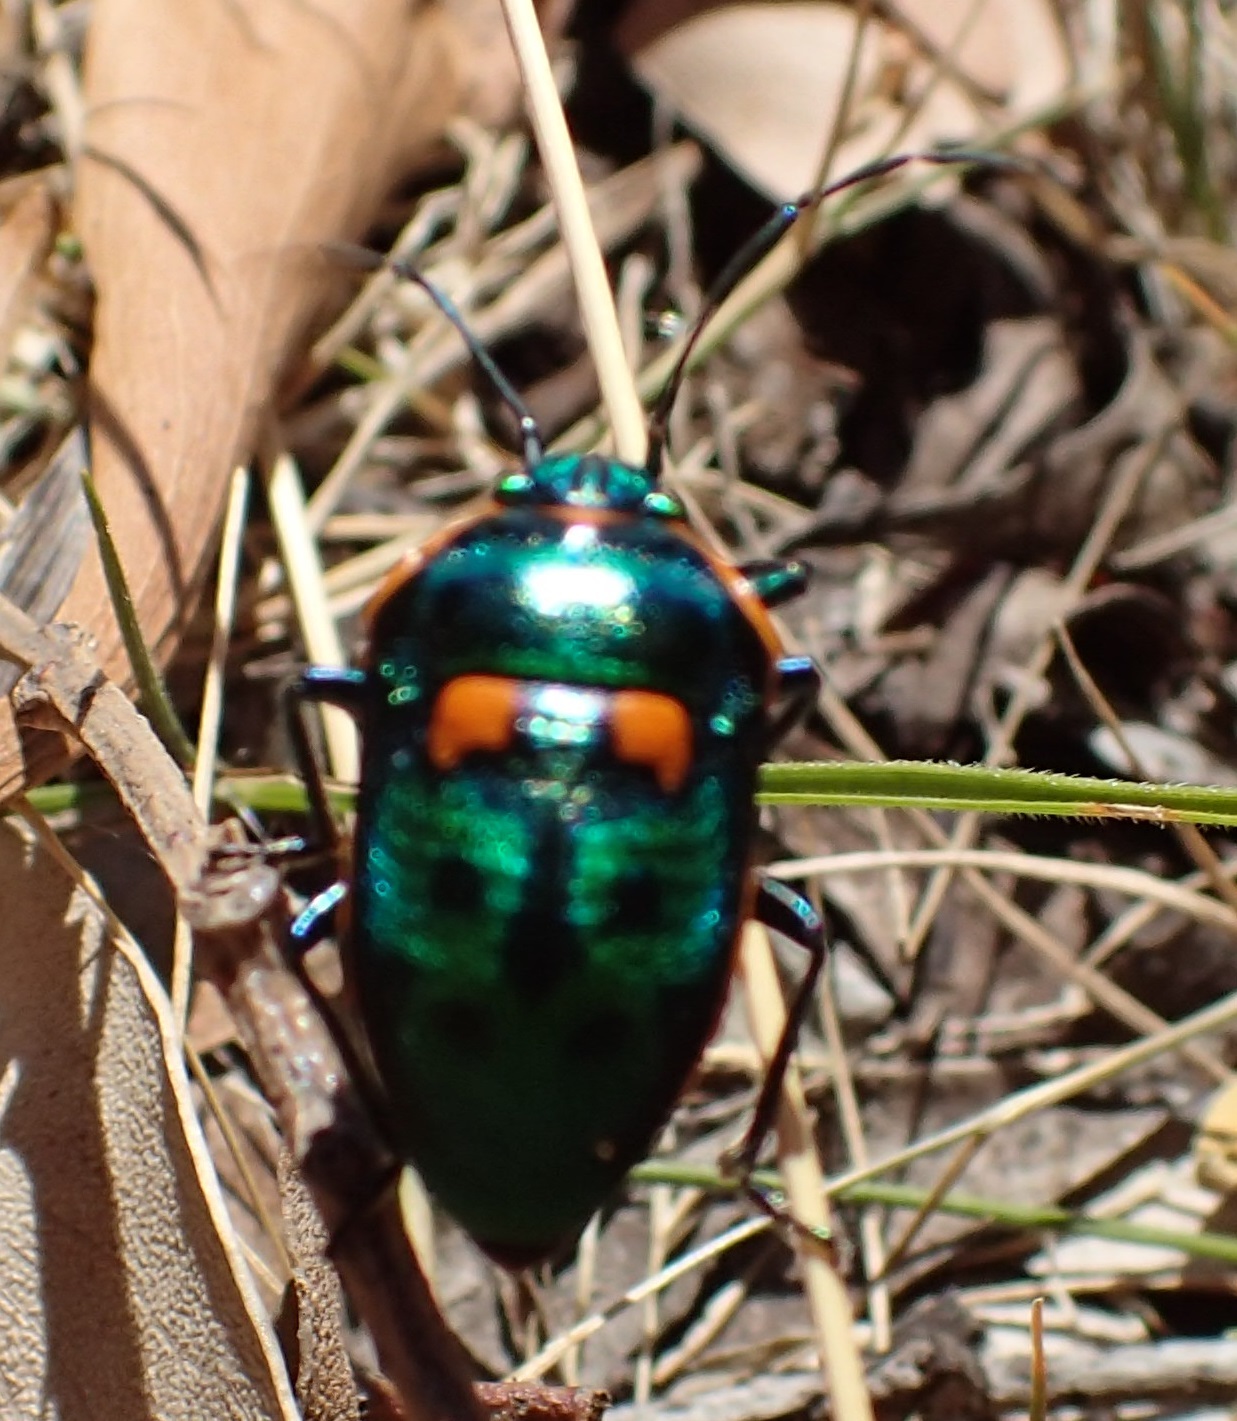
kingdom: Animalia
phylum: Arthropoda
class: Insecta
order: Hemiptera
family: Scutelleridae
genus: Scutiphora
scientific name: Scutiphora pedicellata
